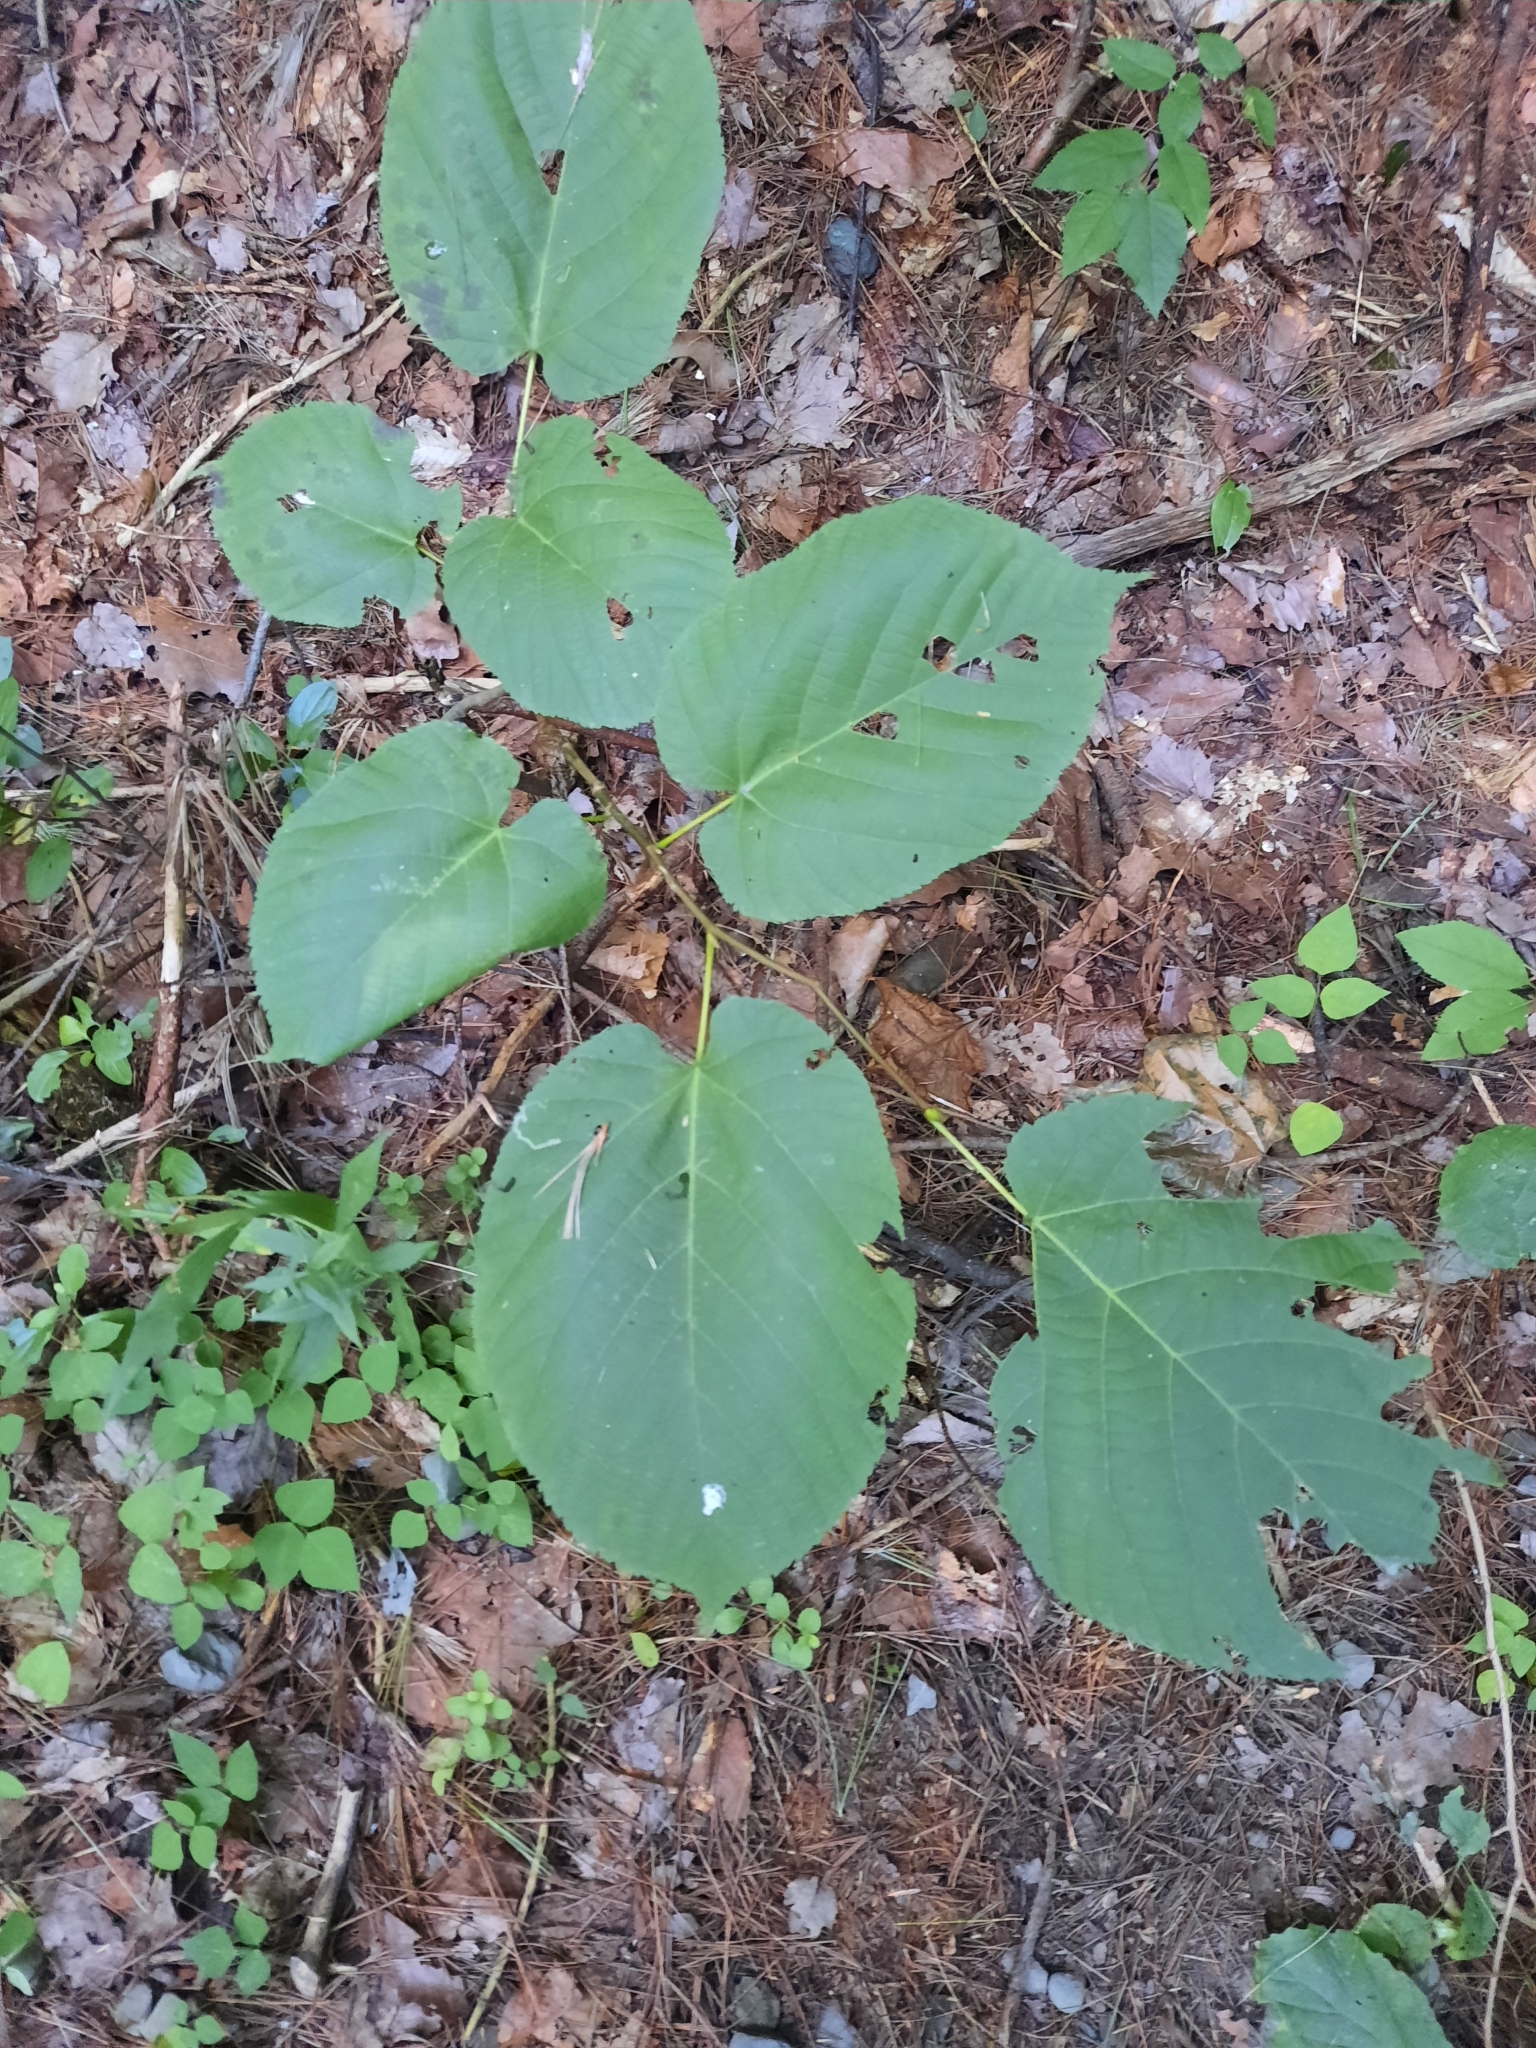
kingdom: Plantae
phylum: Tracheophyta
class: Magnoliopsida
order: Malvales
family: Malvaceae
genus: Tilia
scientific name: Tilia americana
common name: Basswood
